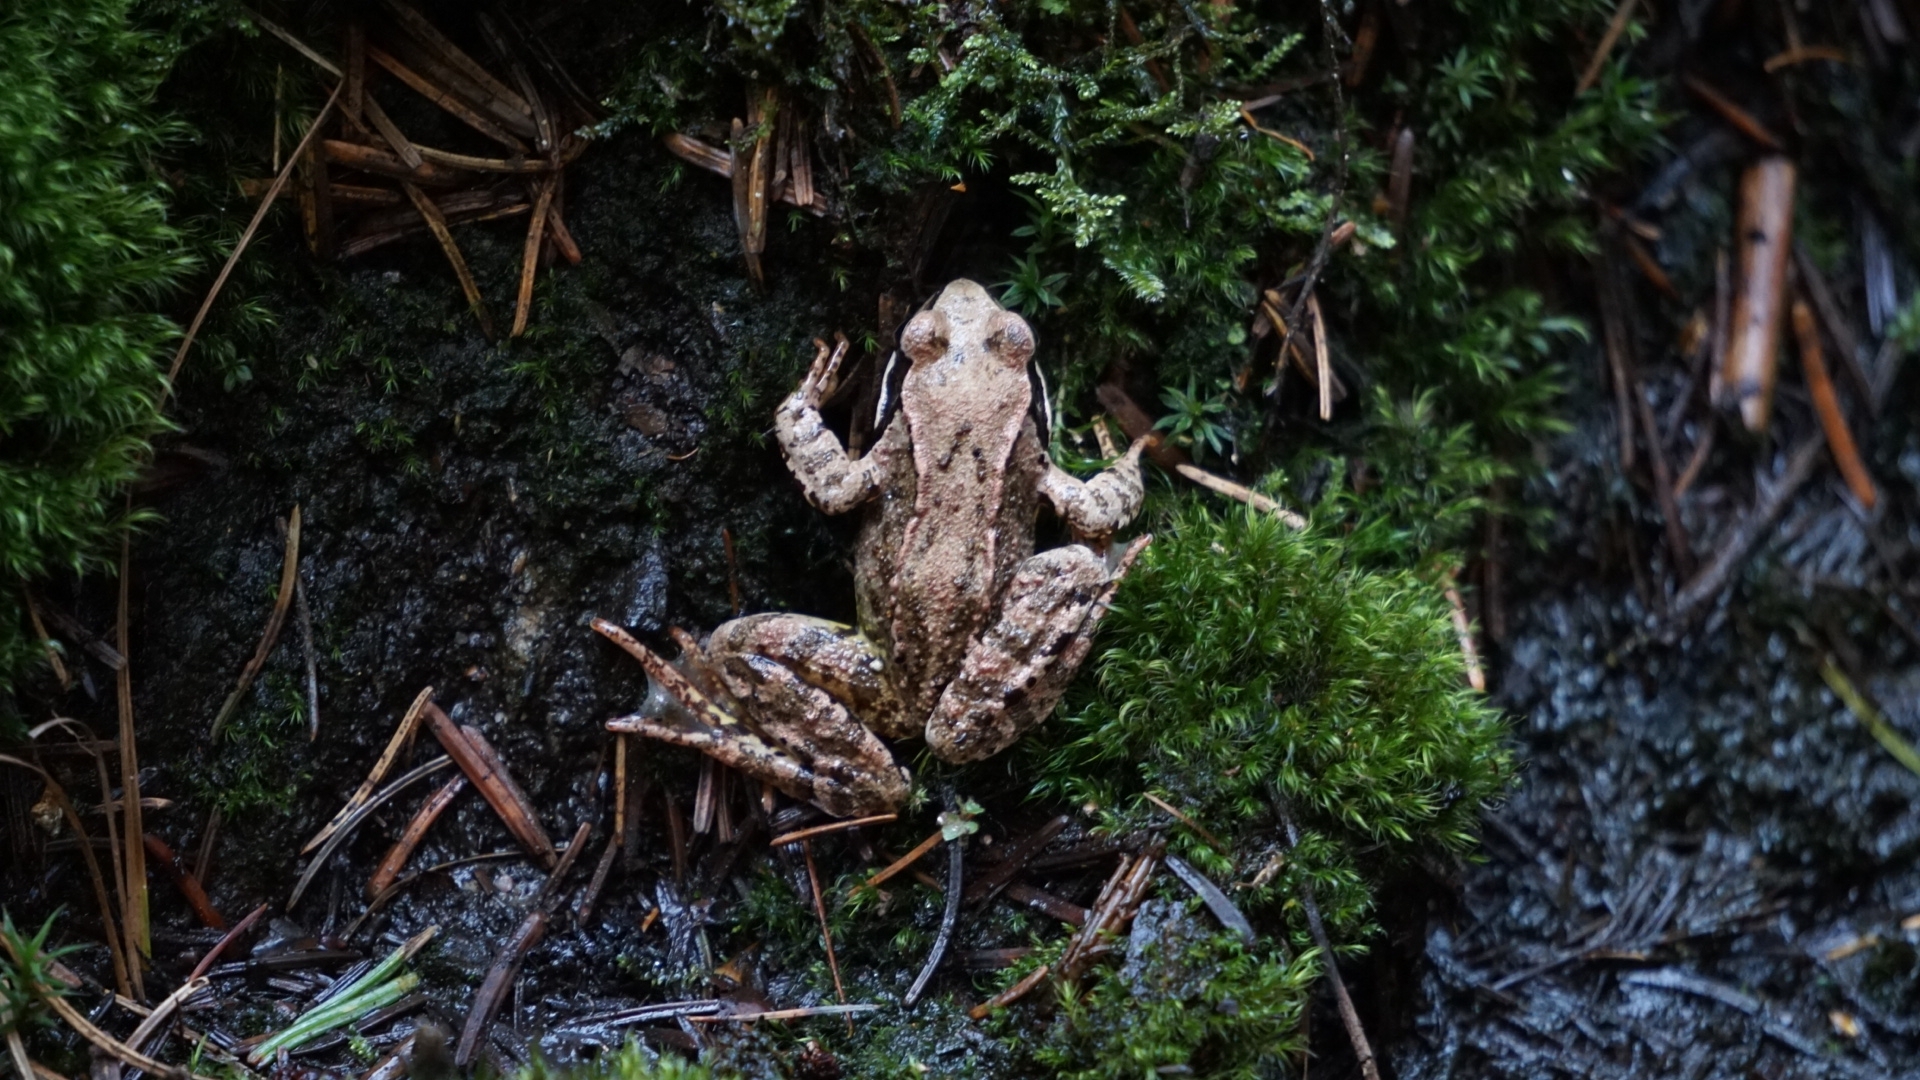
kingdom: Animalia
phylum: Chordata
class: Amphibia
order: Anura
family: Ranidae
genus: Rana
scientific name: Rana temporaria
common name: Common frog
